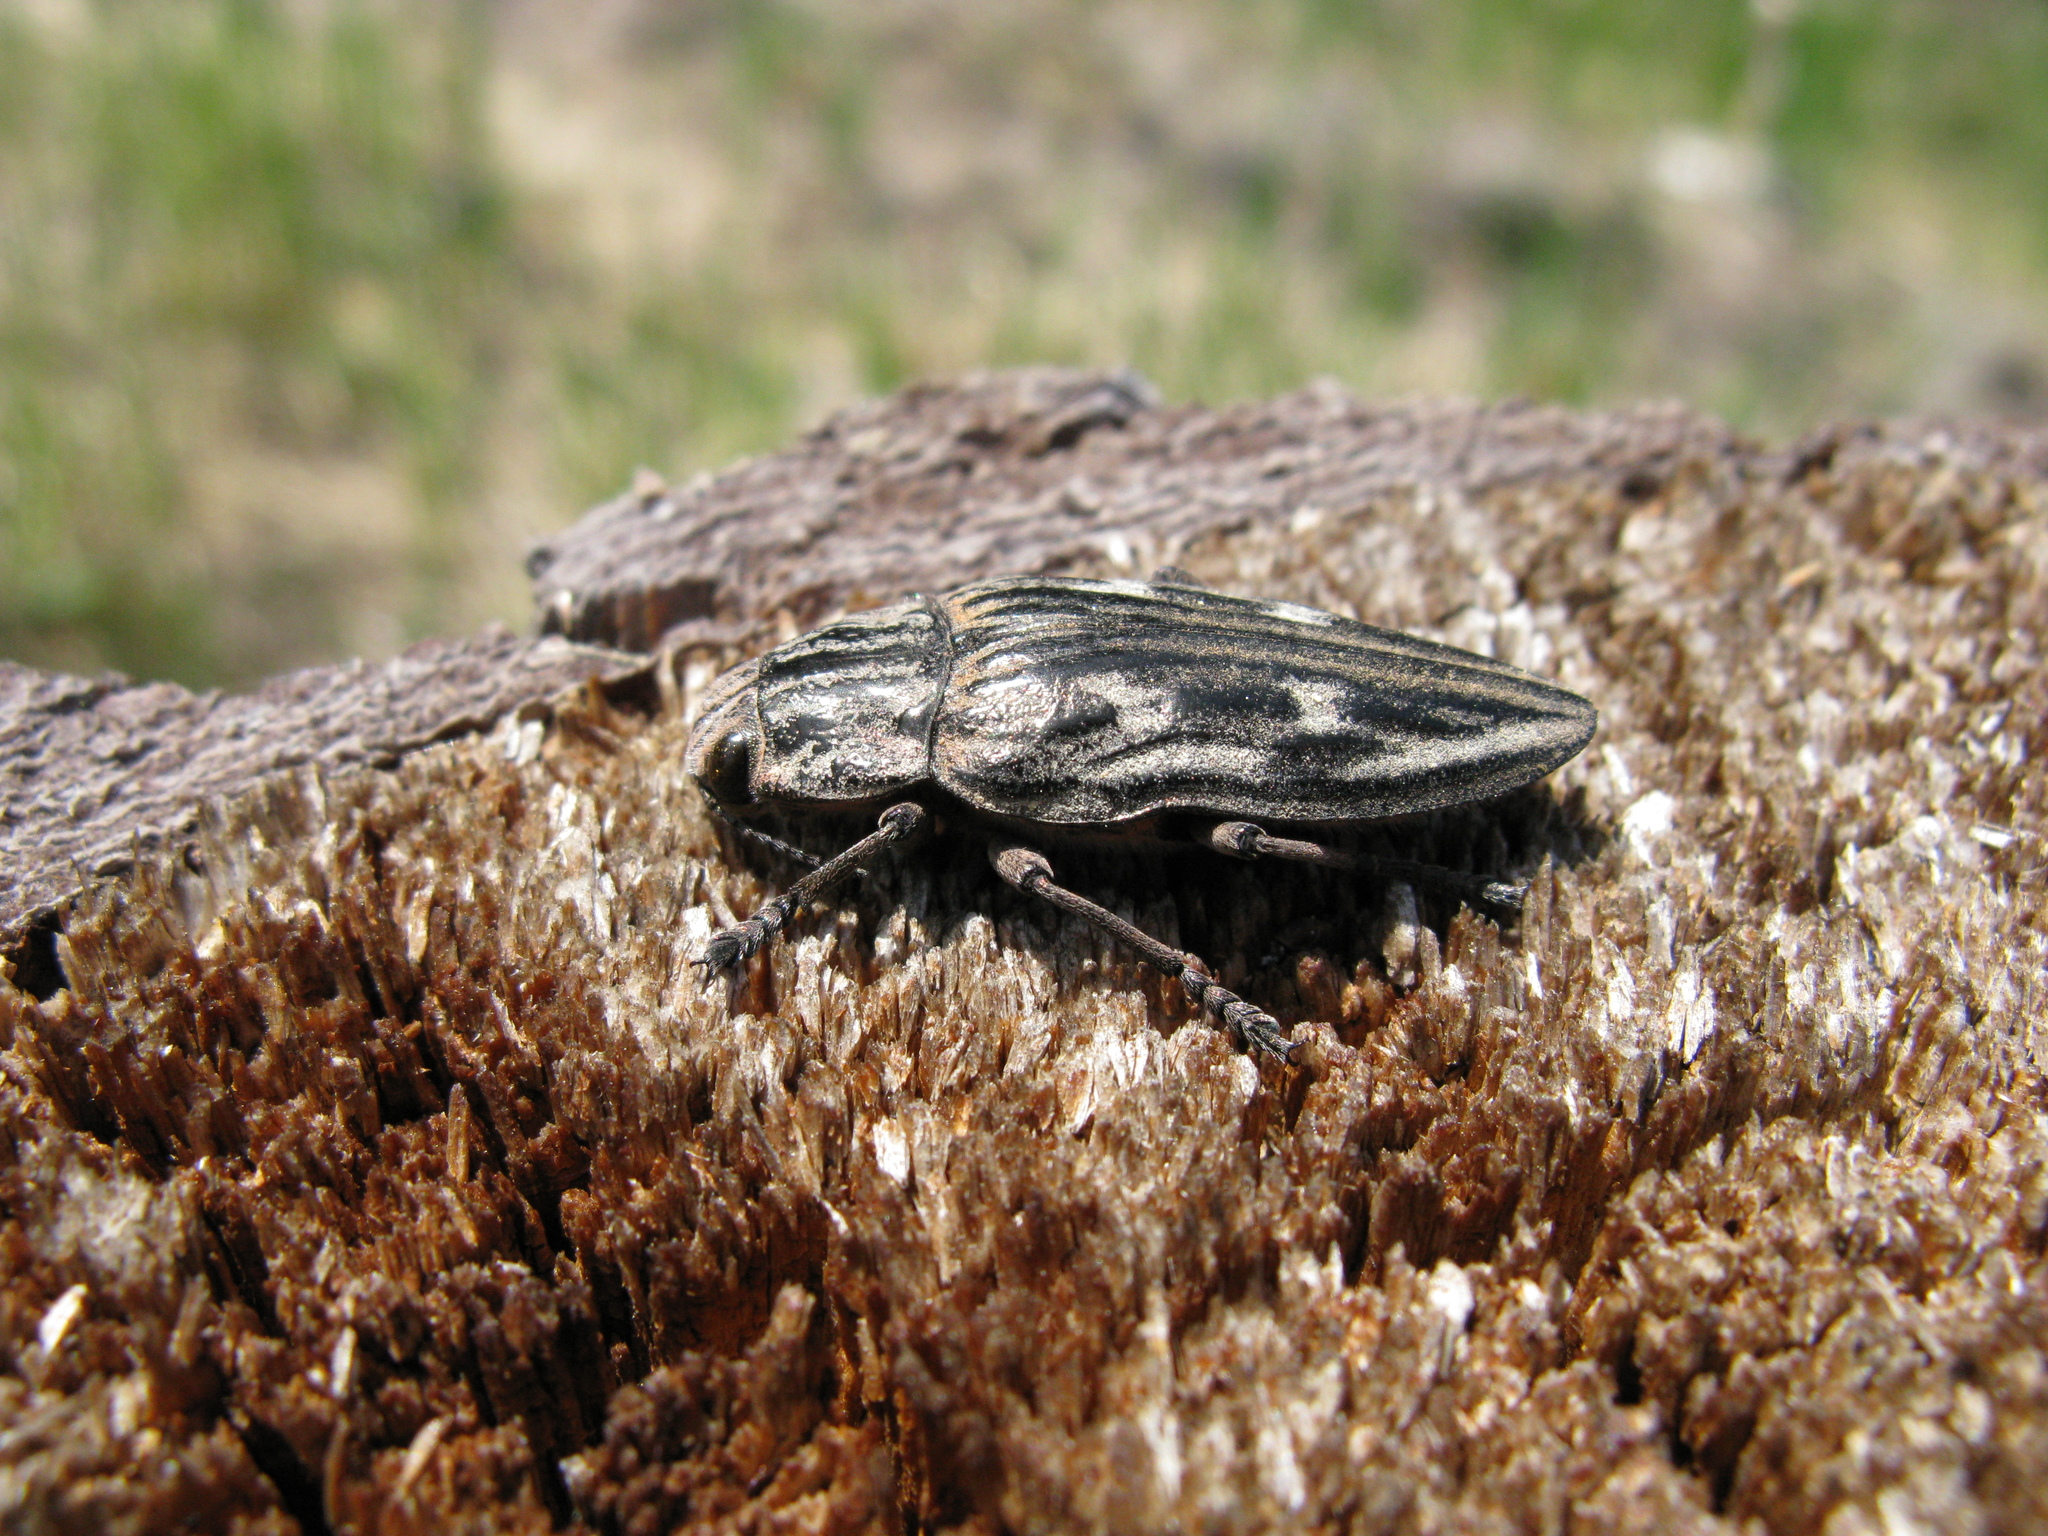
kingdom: Animalia
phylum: Arthropoda
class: Insecta
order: Coleoptera
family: Buprestidae
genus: Chalcophora
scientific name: Chalcophora mariana
